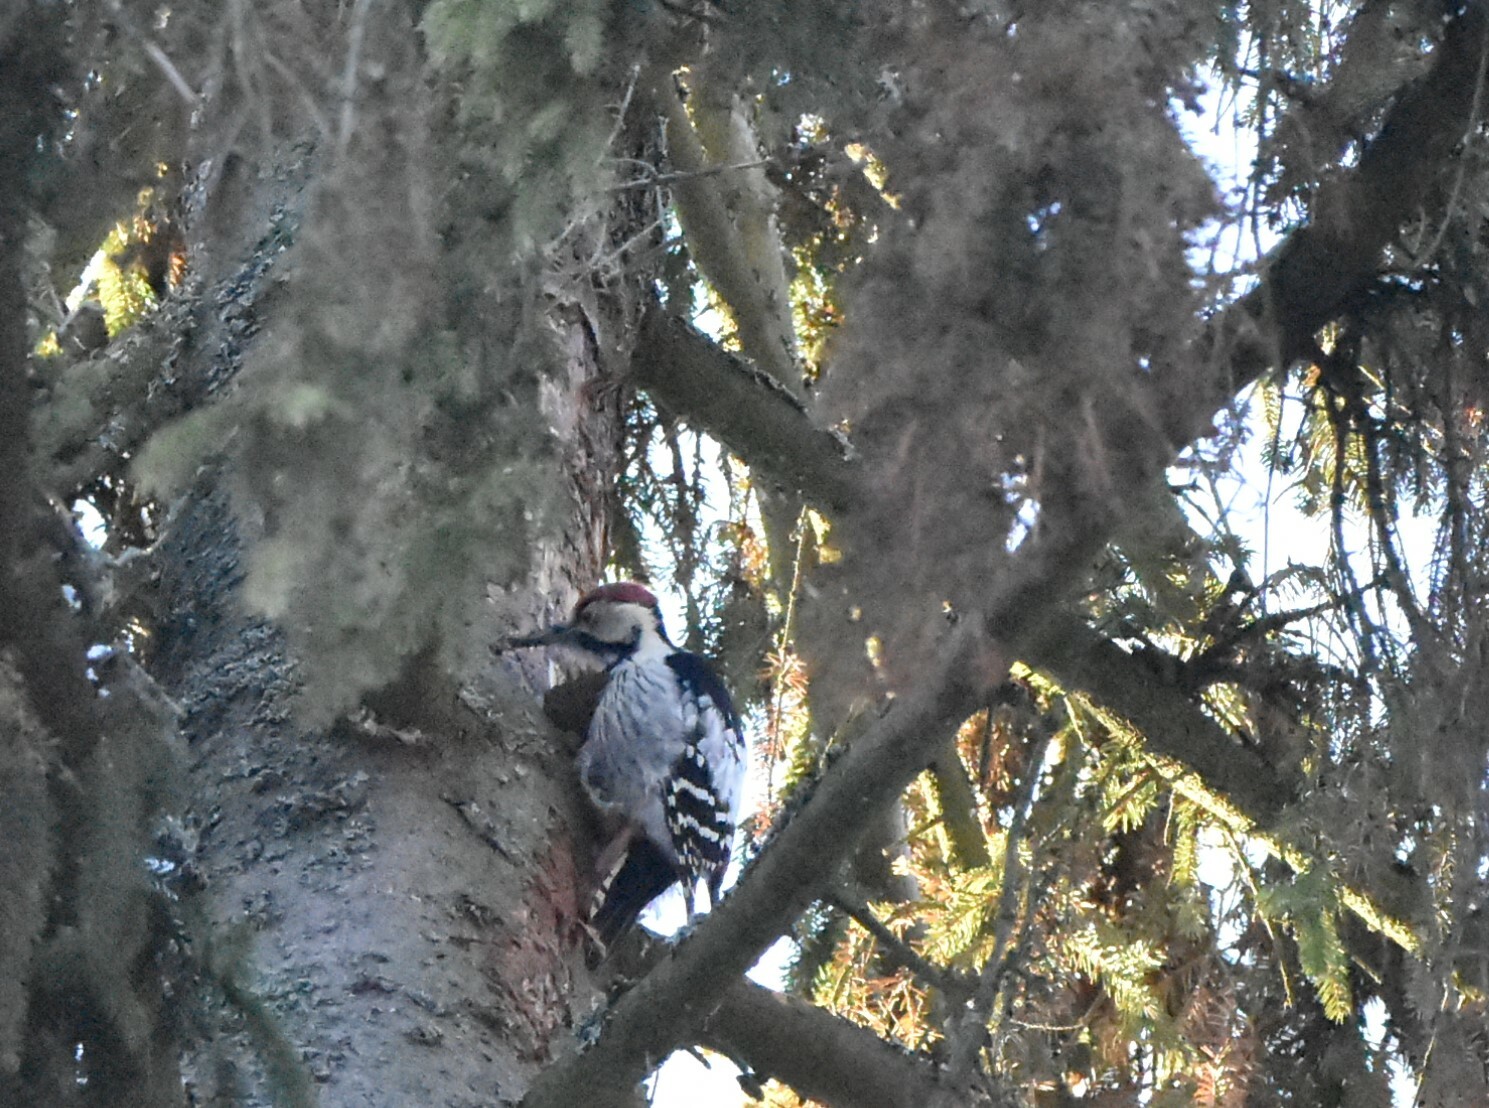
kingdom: Animalia
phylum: Chordata
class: Aves
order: Piciformes
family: Picidae
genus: Dendrocopos
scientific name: Dendrocopos leucotos
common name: White-backed woodpecker
